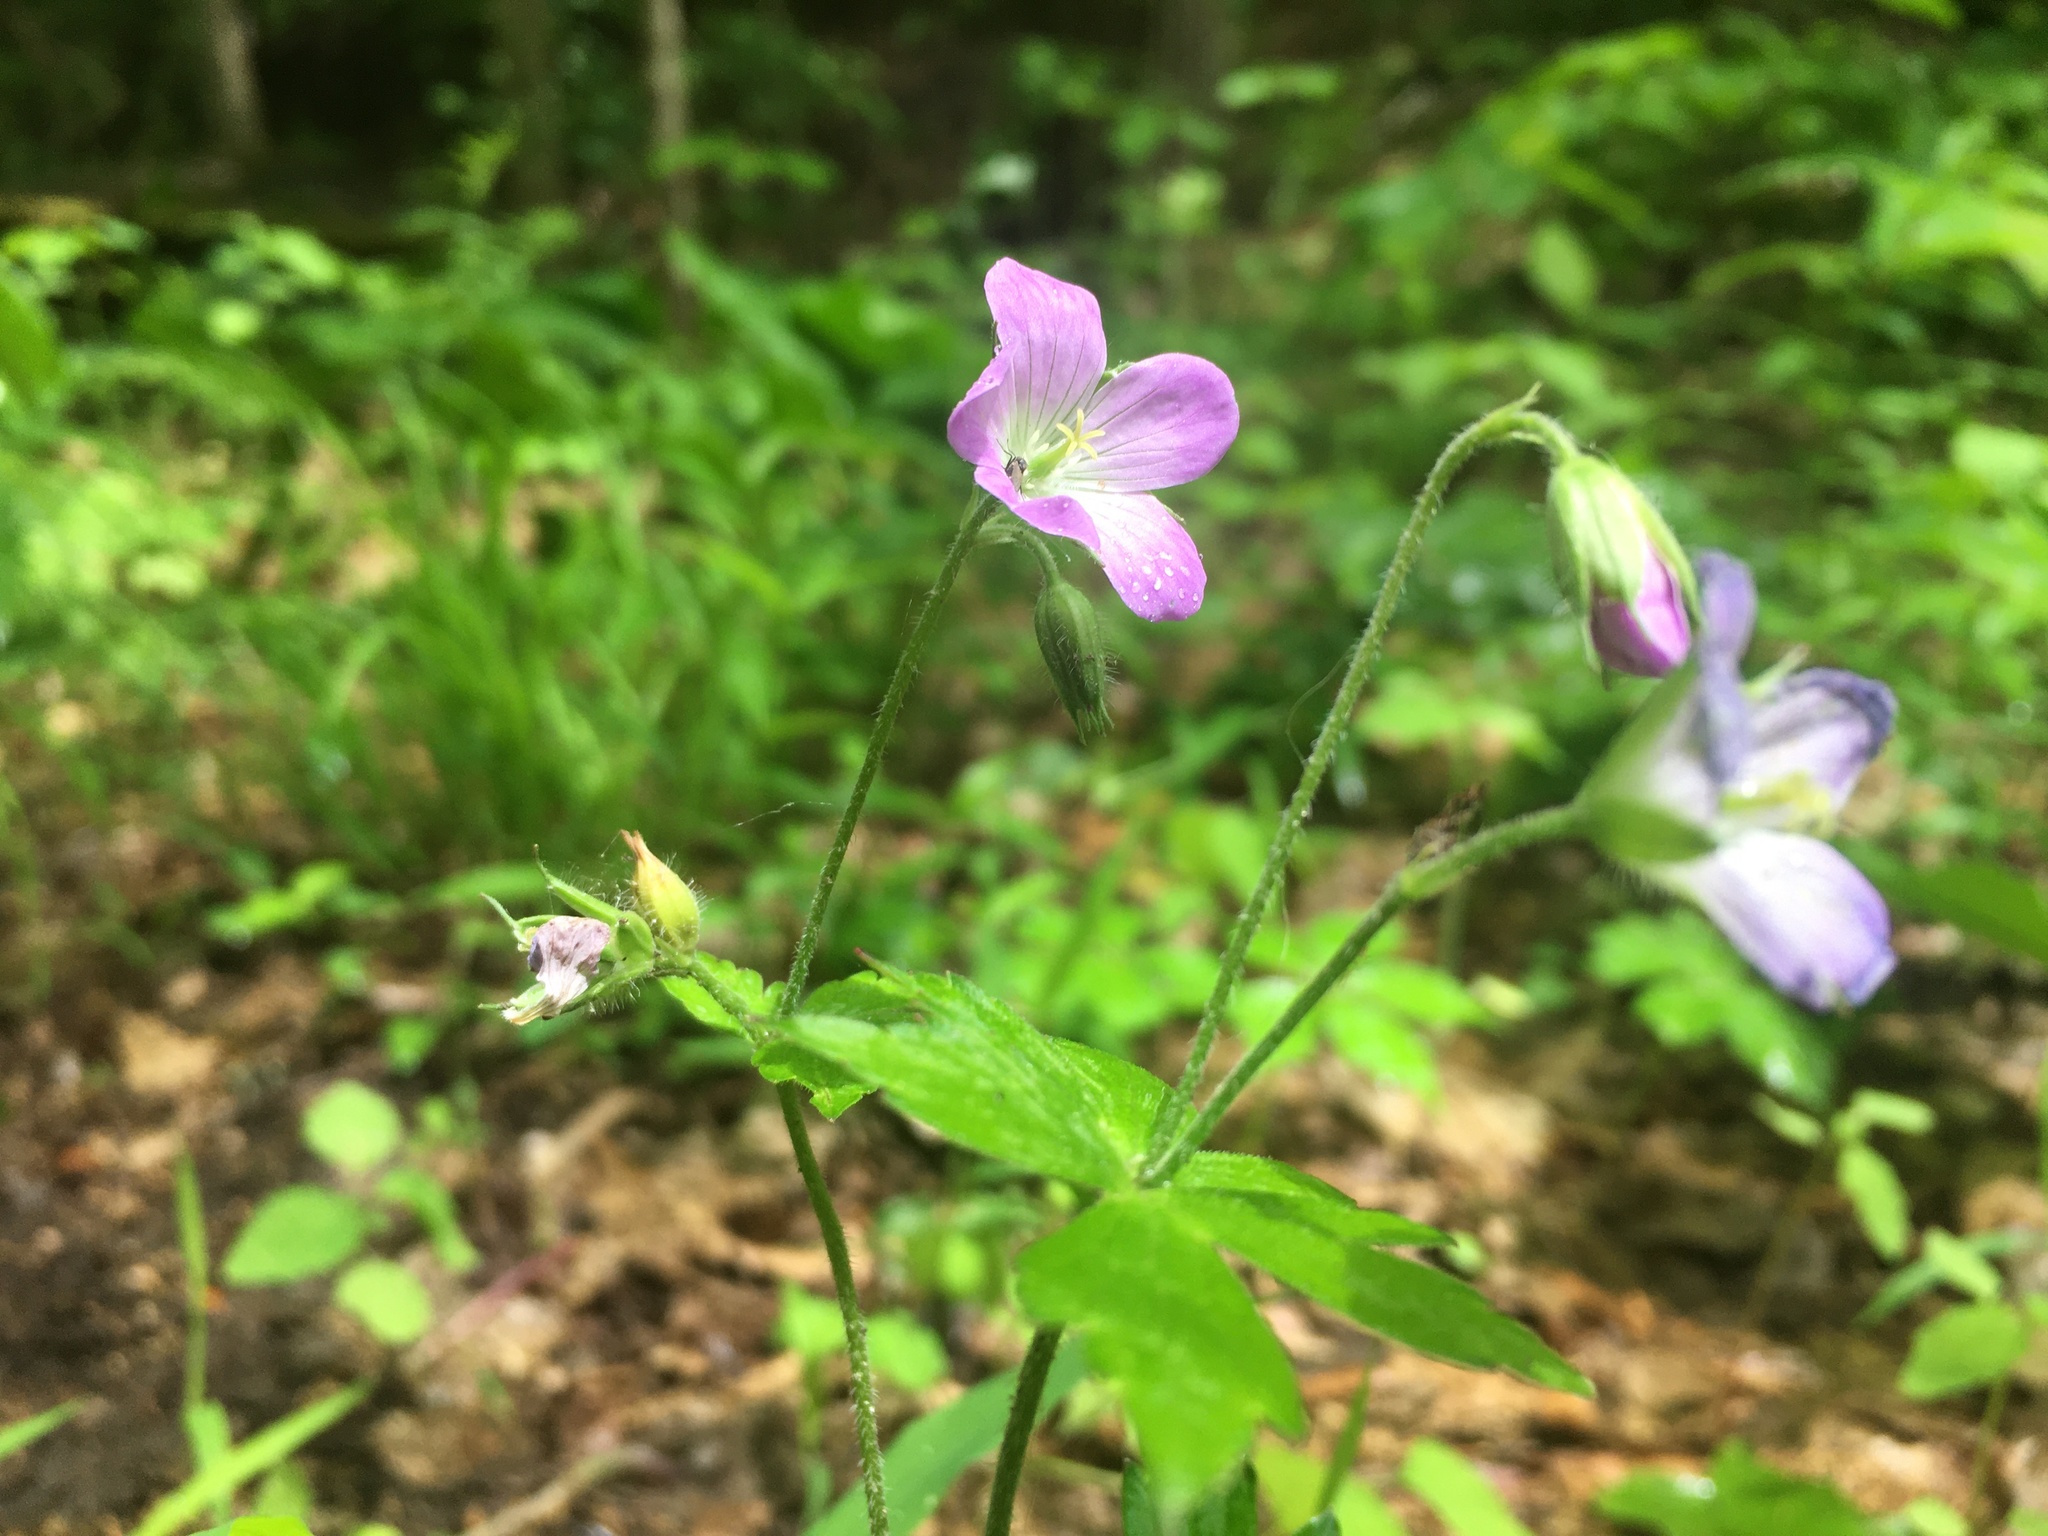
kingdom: Plantae
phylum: Tracheophyta
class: Magnoliopsida
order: Geraniales
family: Geraniaceae
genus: Geranium
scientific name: Geranium maculatum
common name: Spotted geranium
